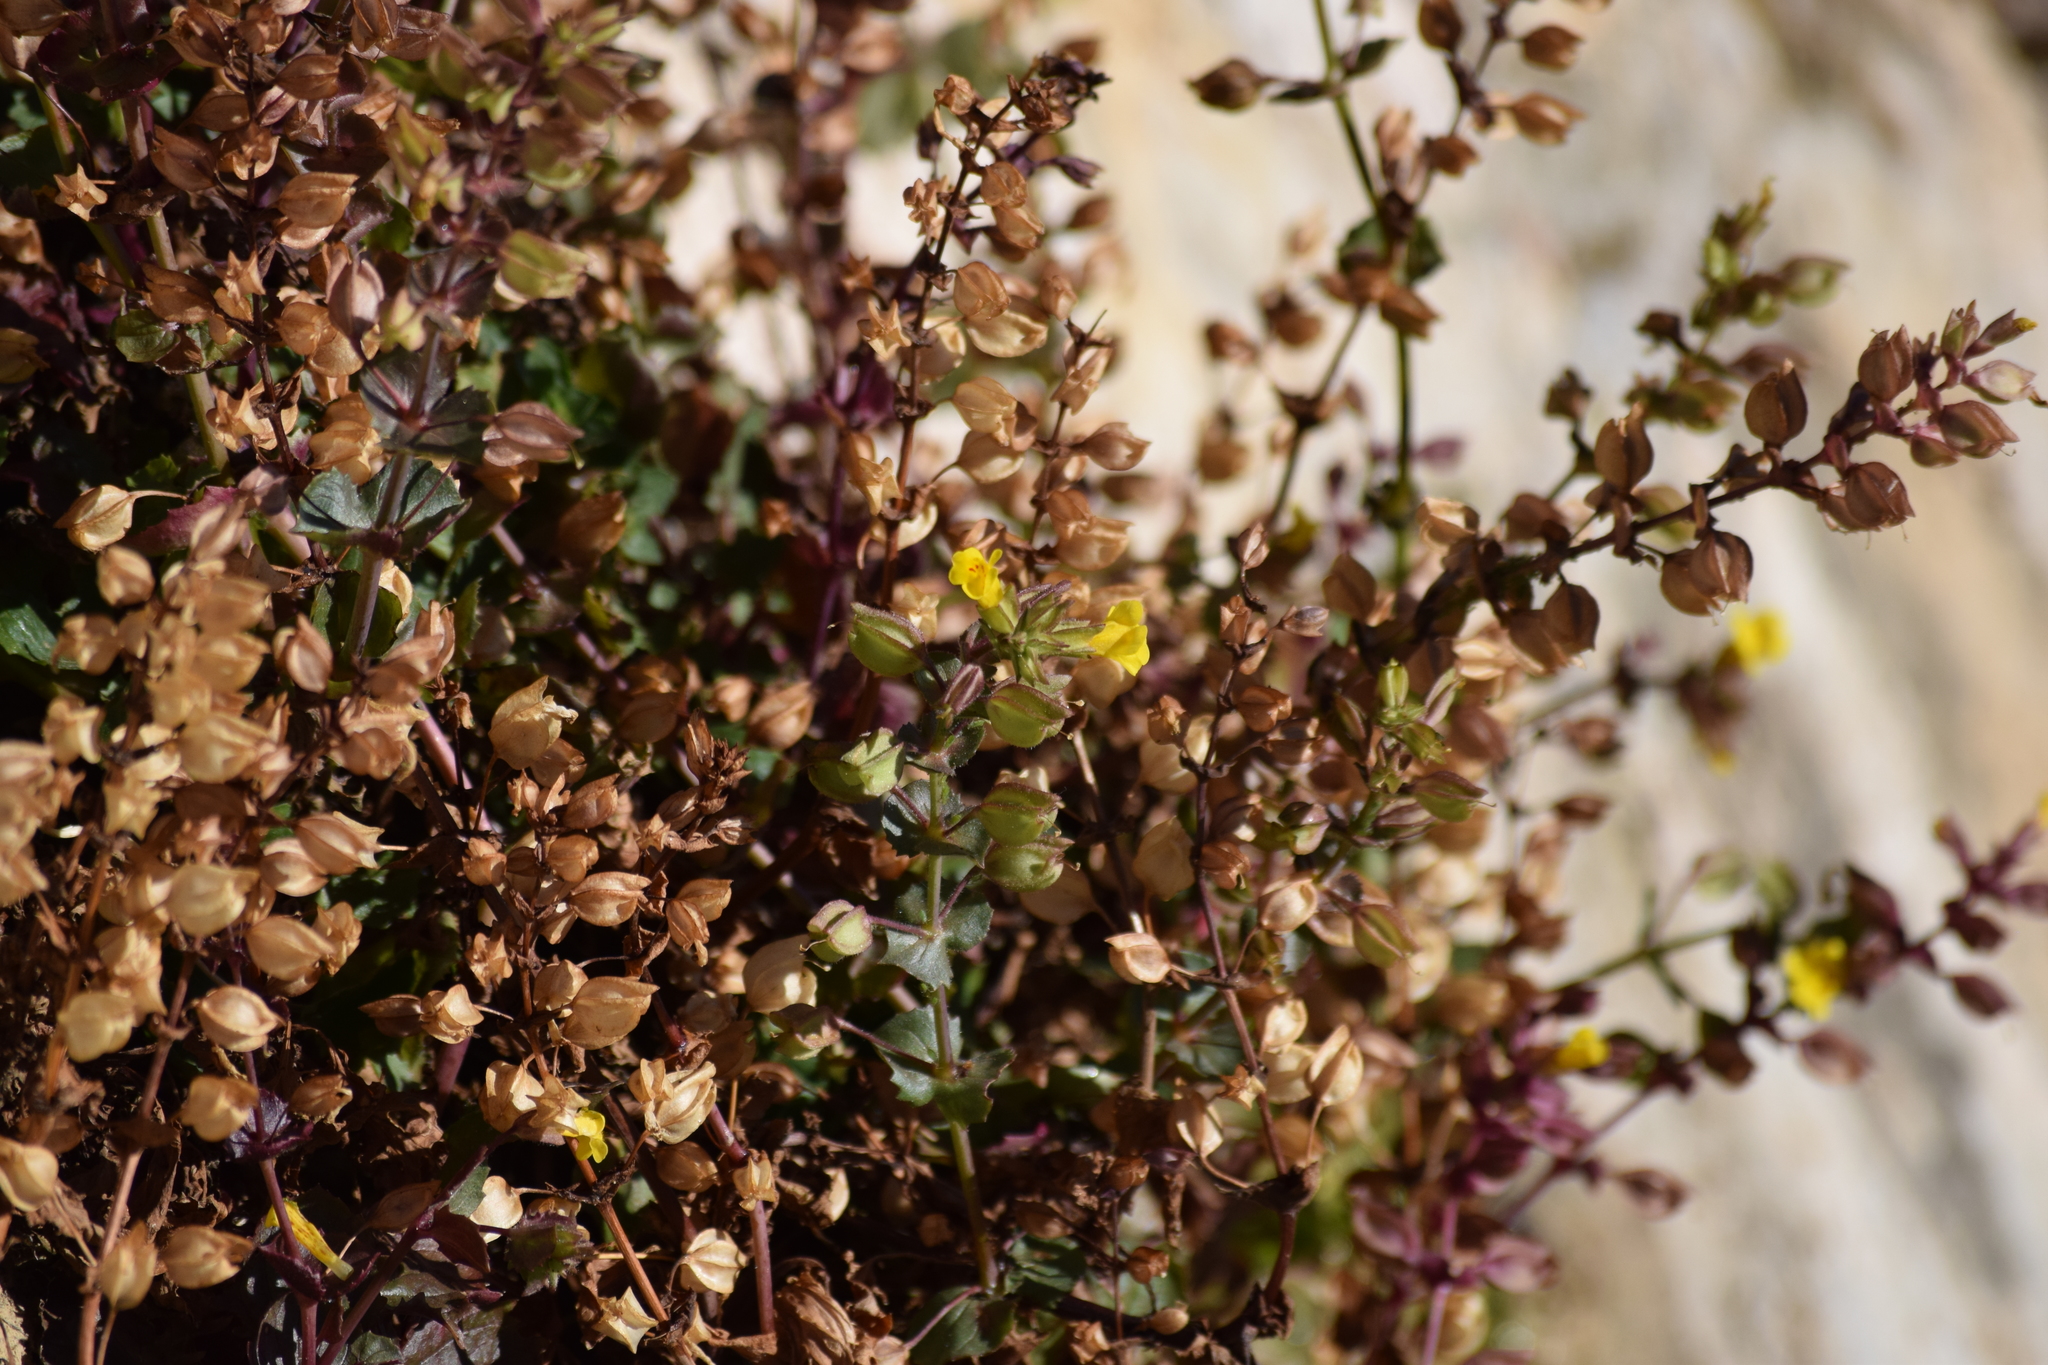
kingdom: Plantae
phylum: Tracheophyta
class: Magnoliopsida
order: Lamiales
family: Phrymaceae
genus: Erythranthe
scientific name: Erythranthe guttata
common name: Monkeyflower
